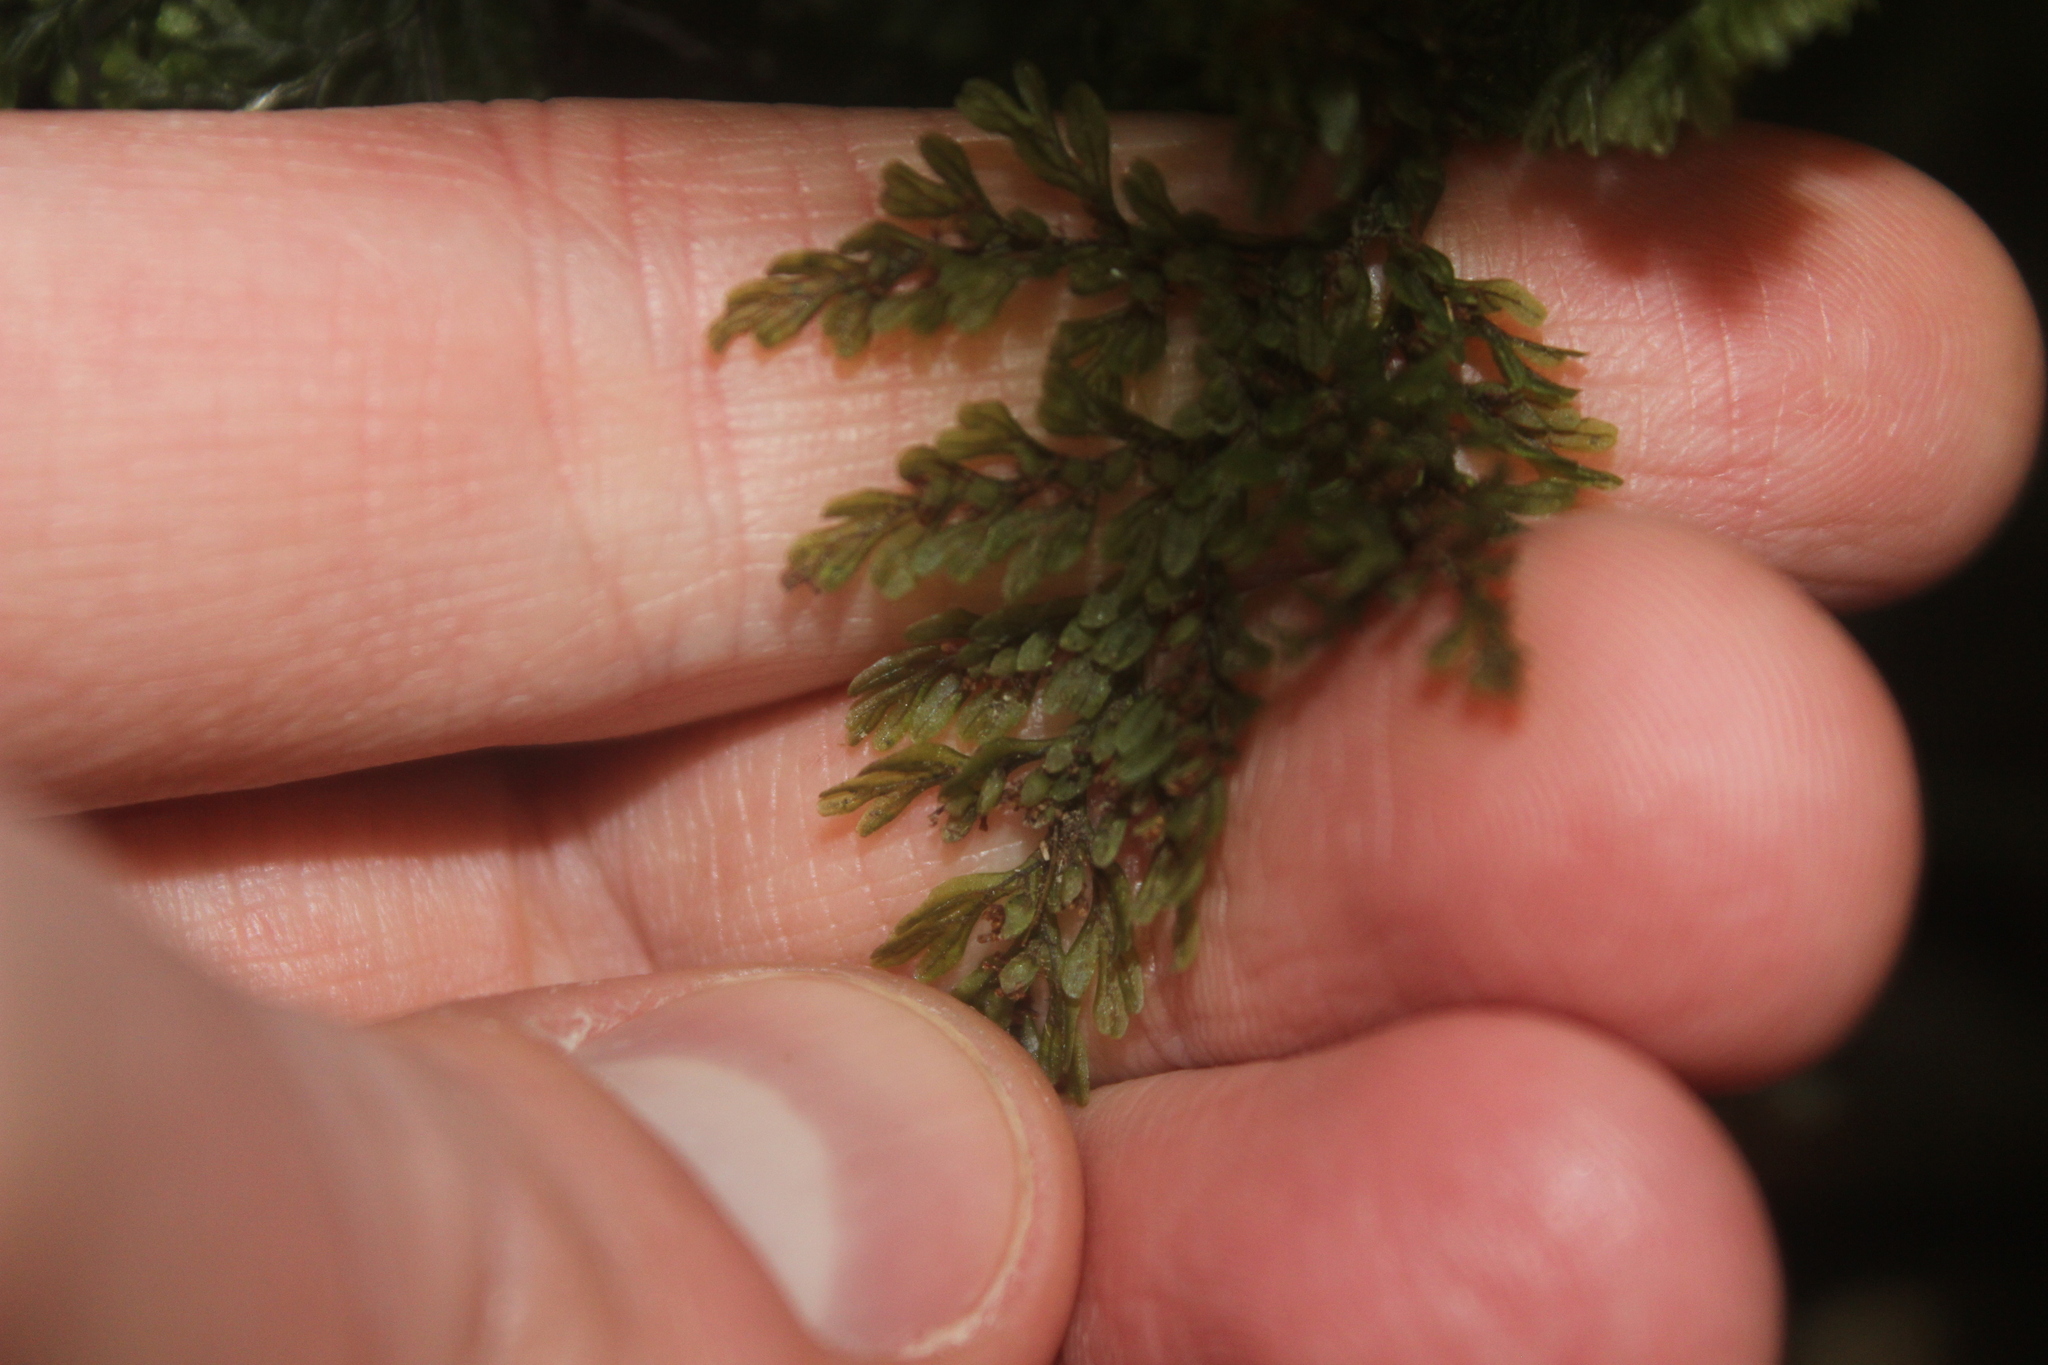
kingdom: Plantae
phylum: Tracheophyta
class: Polypodiopsida
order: Hymenophyllales
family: Hymenophyllaceae
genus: Hymenophyllum
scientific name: Hymenophyllum villosum
